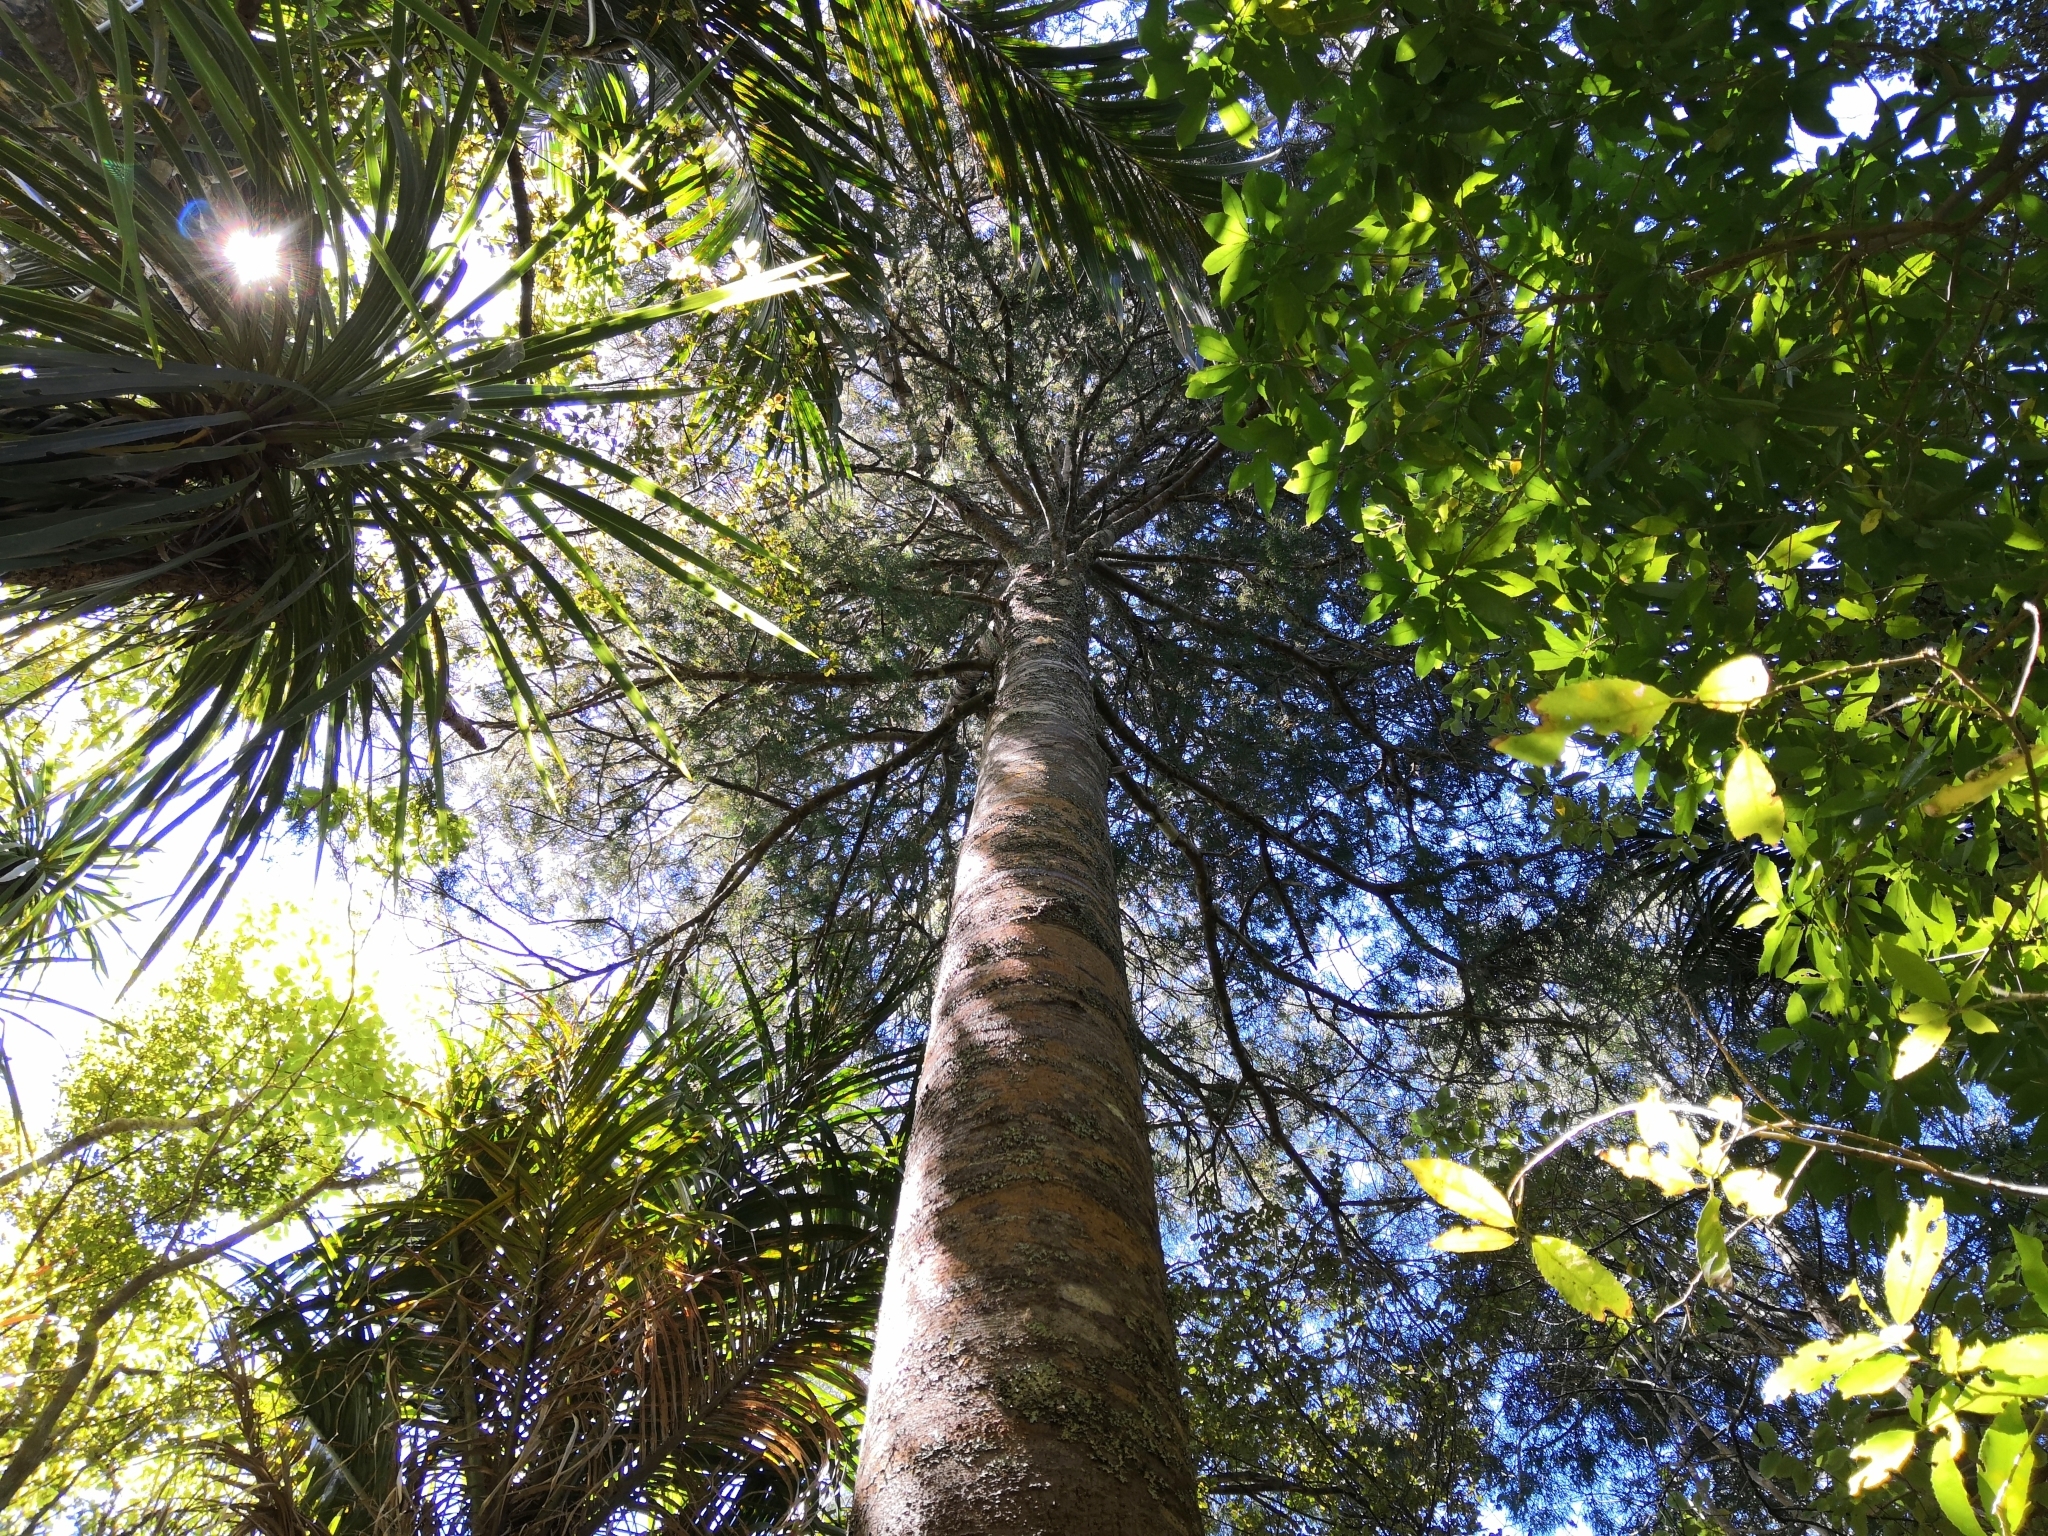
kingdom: Plantae
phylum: Tracheophyta
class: Pinopsida
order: Pinales
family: Podocarpaceae
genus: Dacrycarpus
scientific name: Dacrycarpus dacrydioides
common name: White pine
